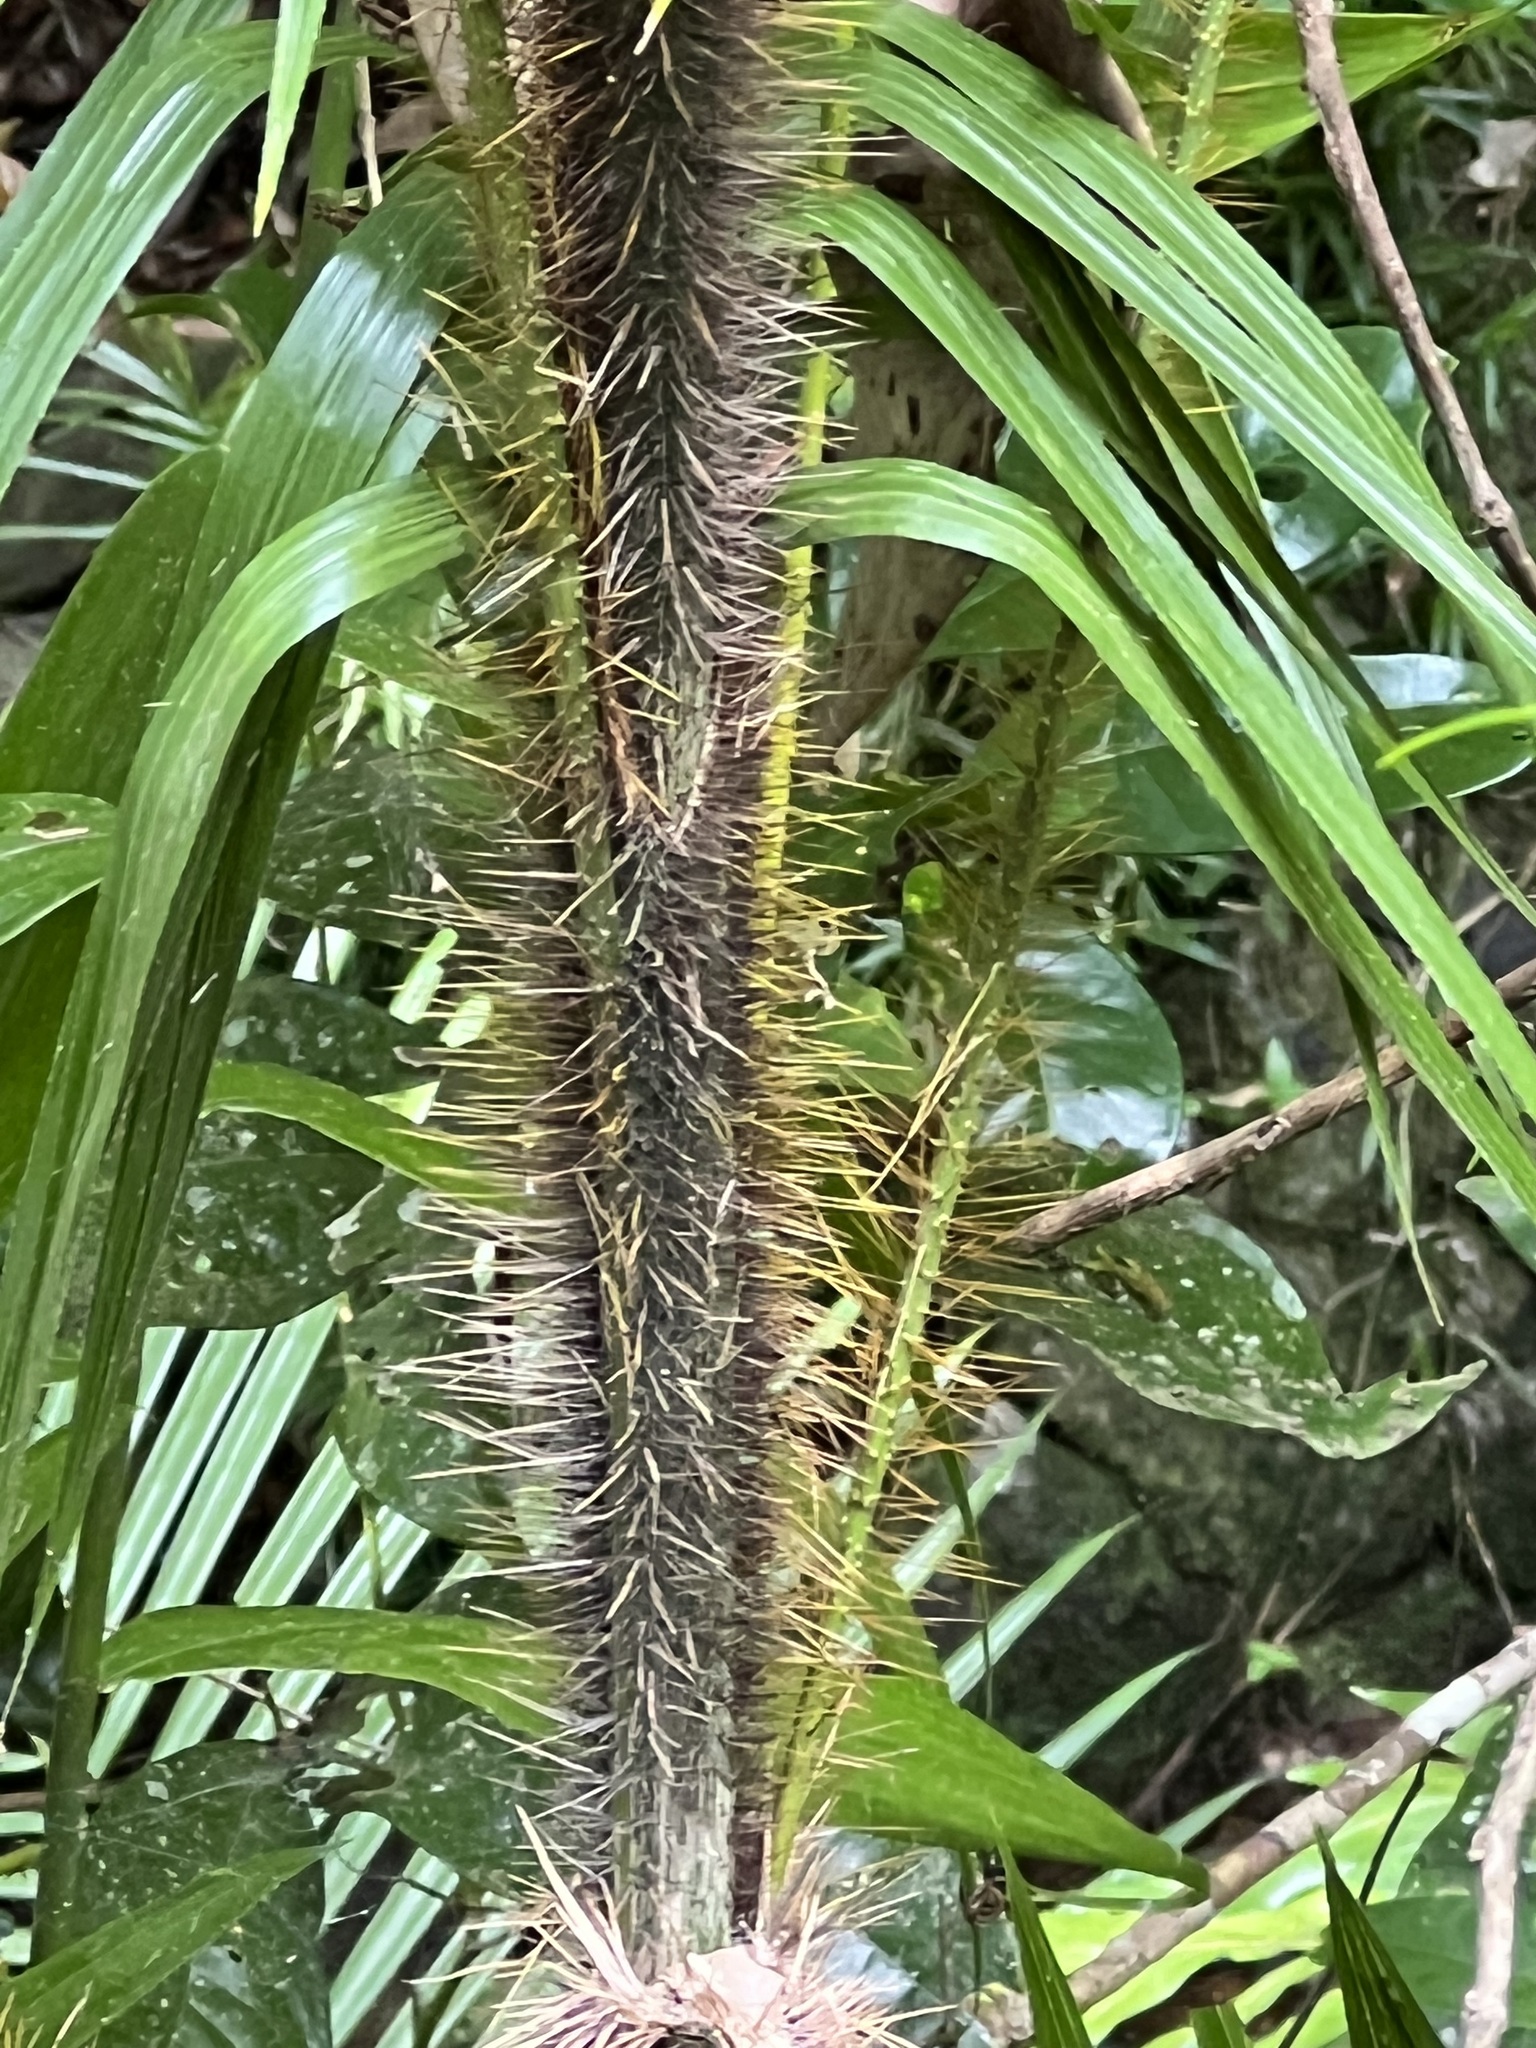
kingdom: Plantae
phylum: Tracheophyta
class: Liliopsida
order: Arecales
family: Arecaceae
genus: Calamus
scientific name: Calamus radicalis
